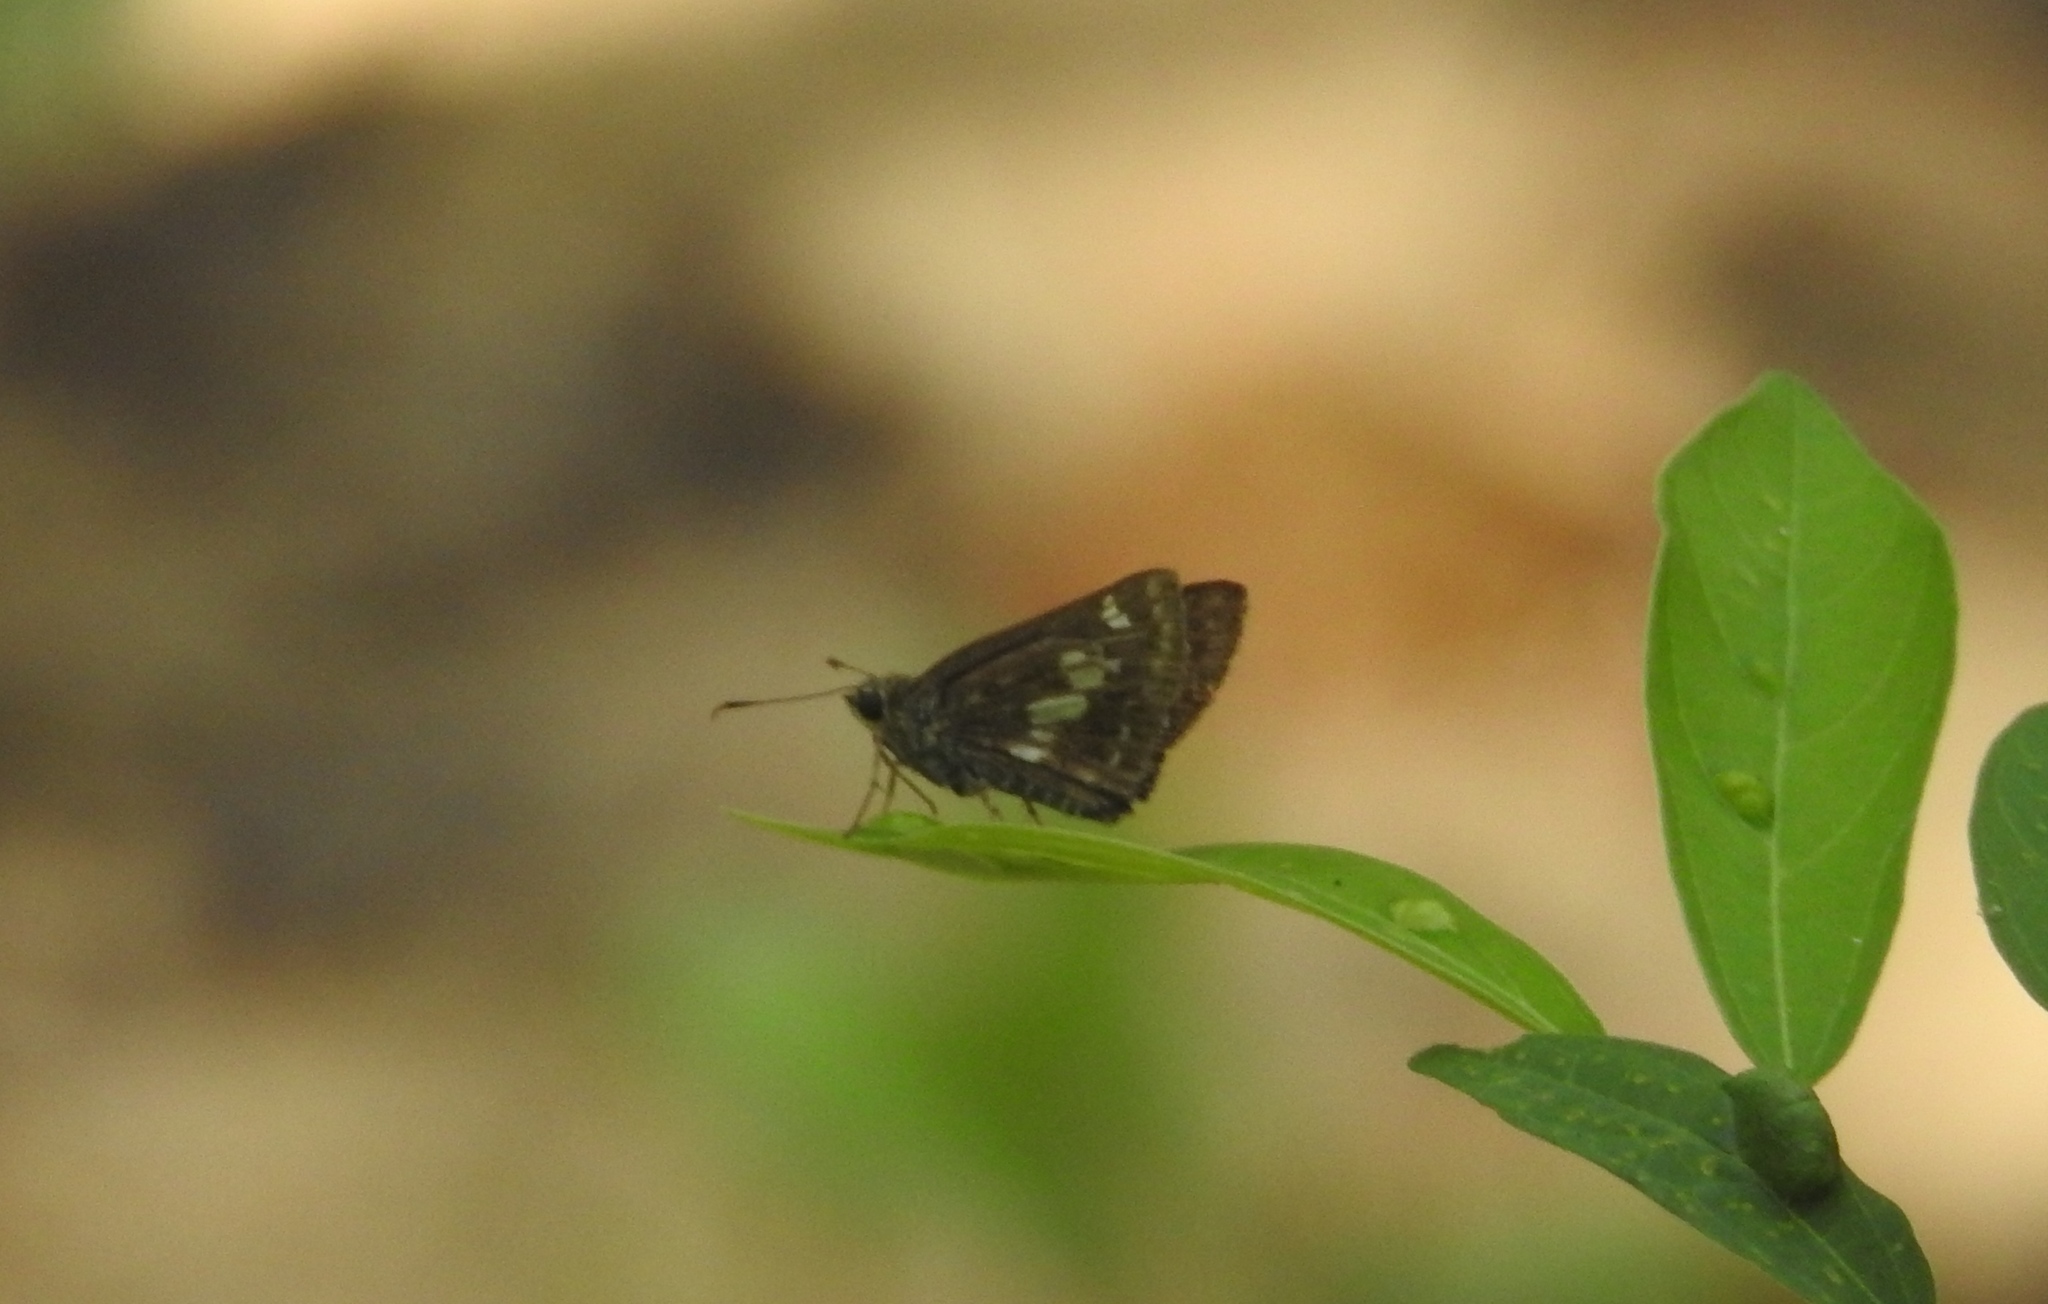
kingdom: Animalia
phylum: Arthropoda
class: Insecta
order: Lepidoptera
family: Hesperiidae
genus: Halpe
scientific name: Halpe porus
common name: Moore's ace
